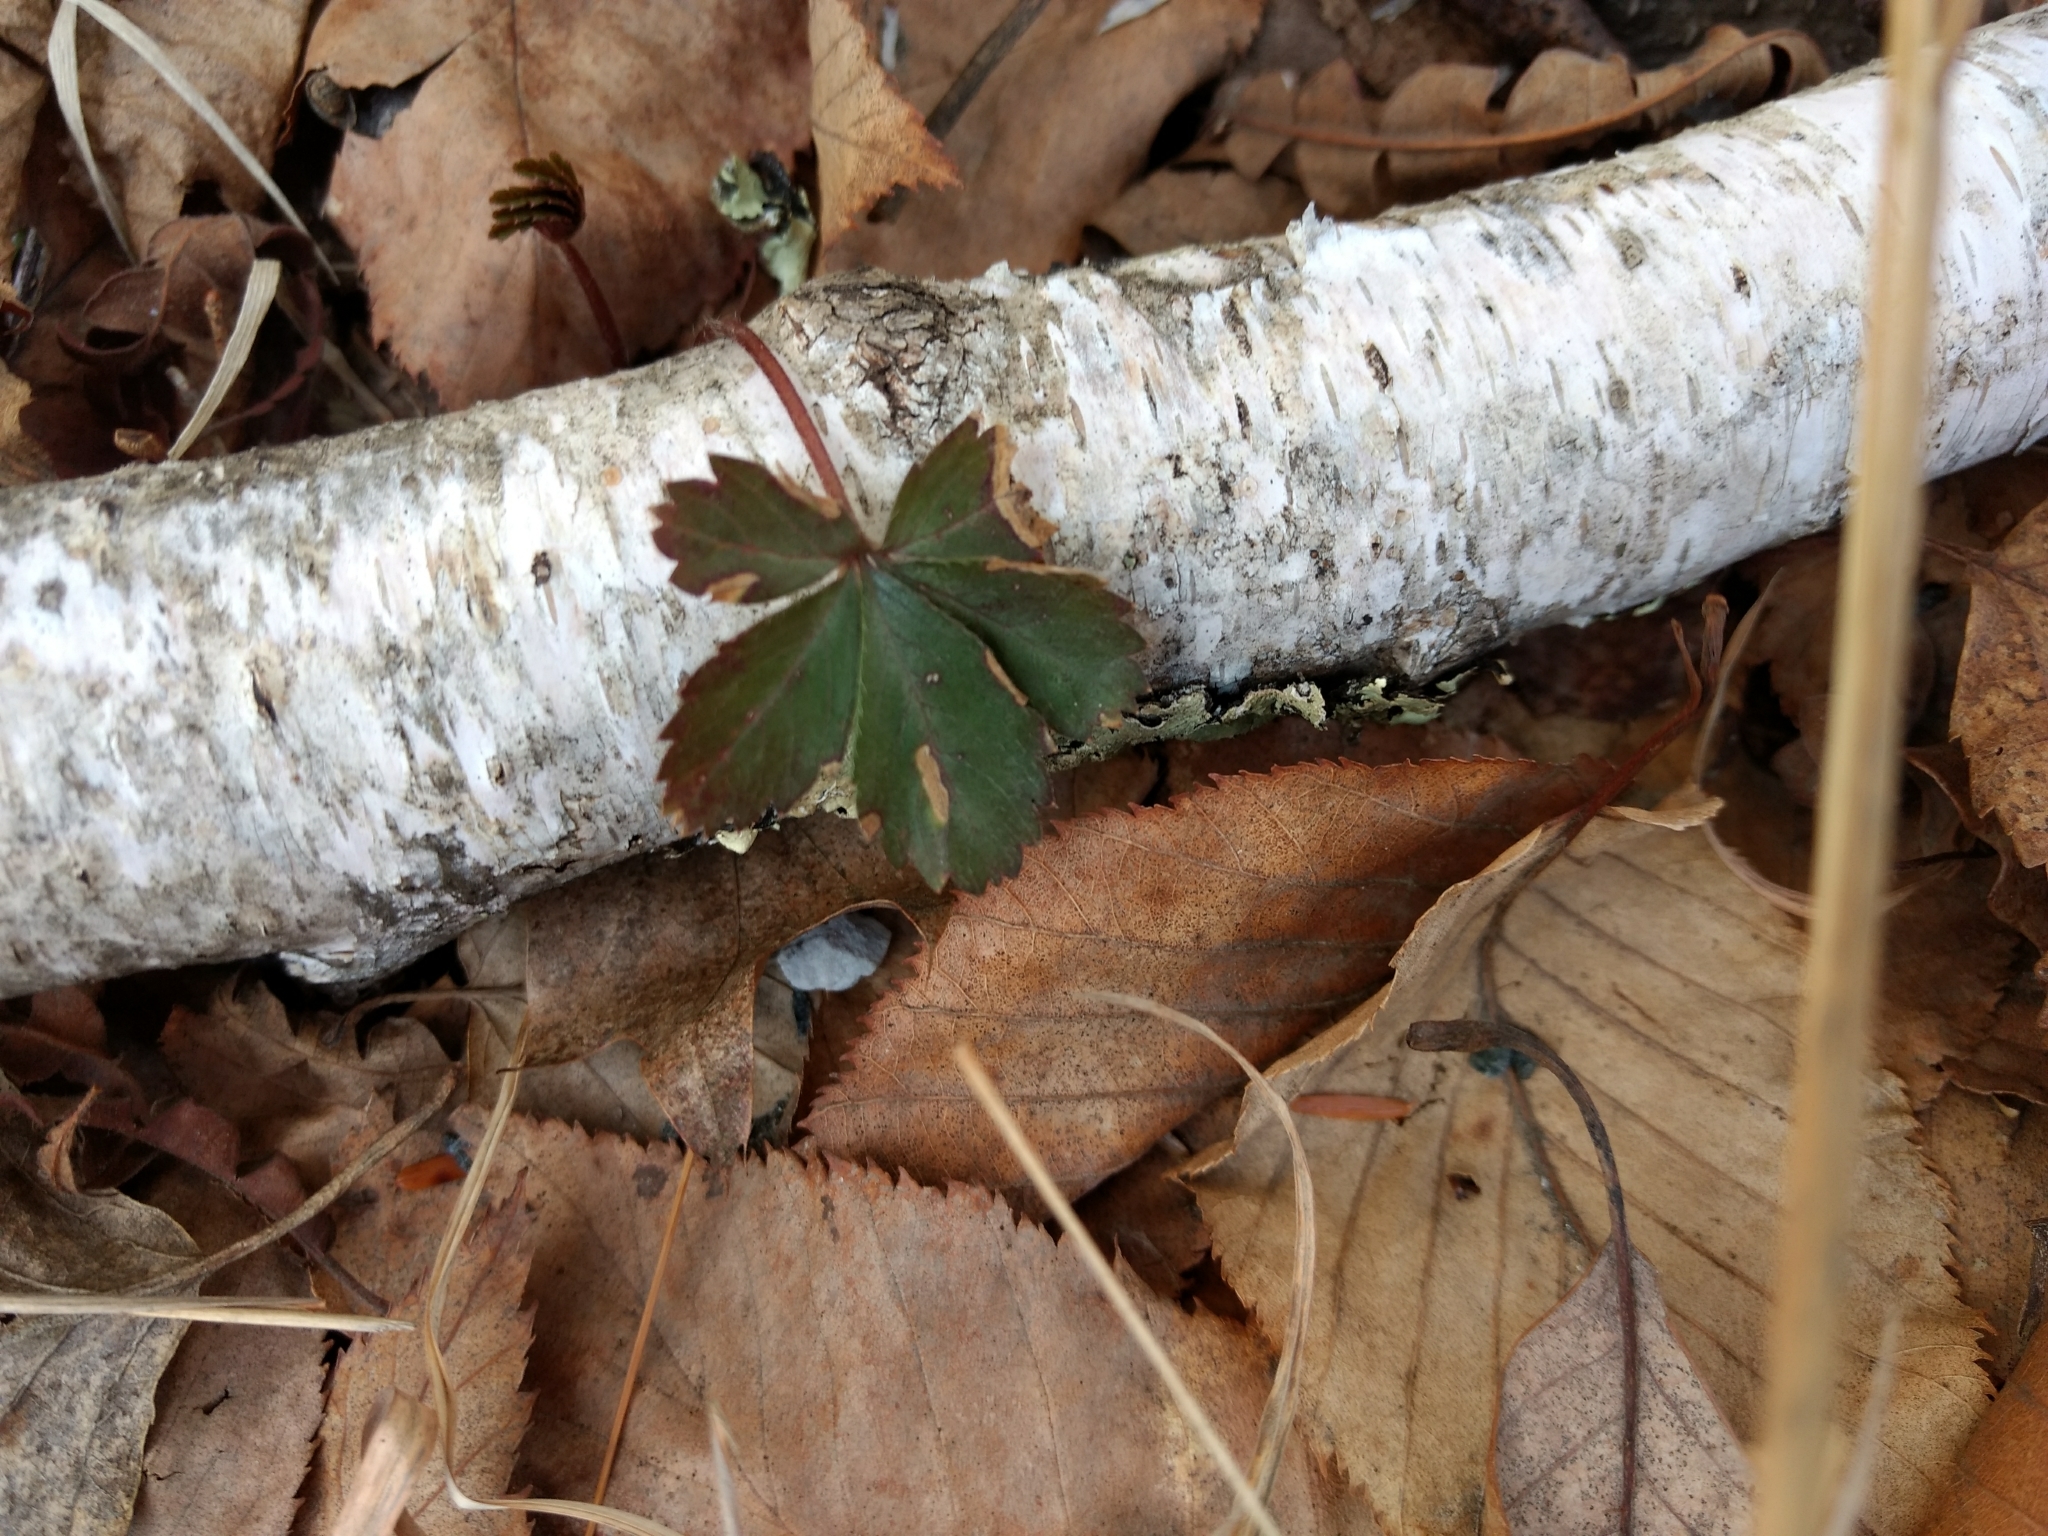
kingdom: Plantae
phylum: Tracheophyta
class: Magnoliopsida
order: Rosales
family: Rosaceae
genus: Potentilla
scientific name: Potentilla canadensis
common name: Canada cinquefoil
